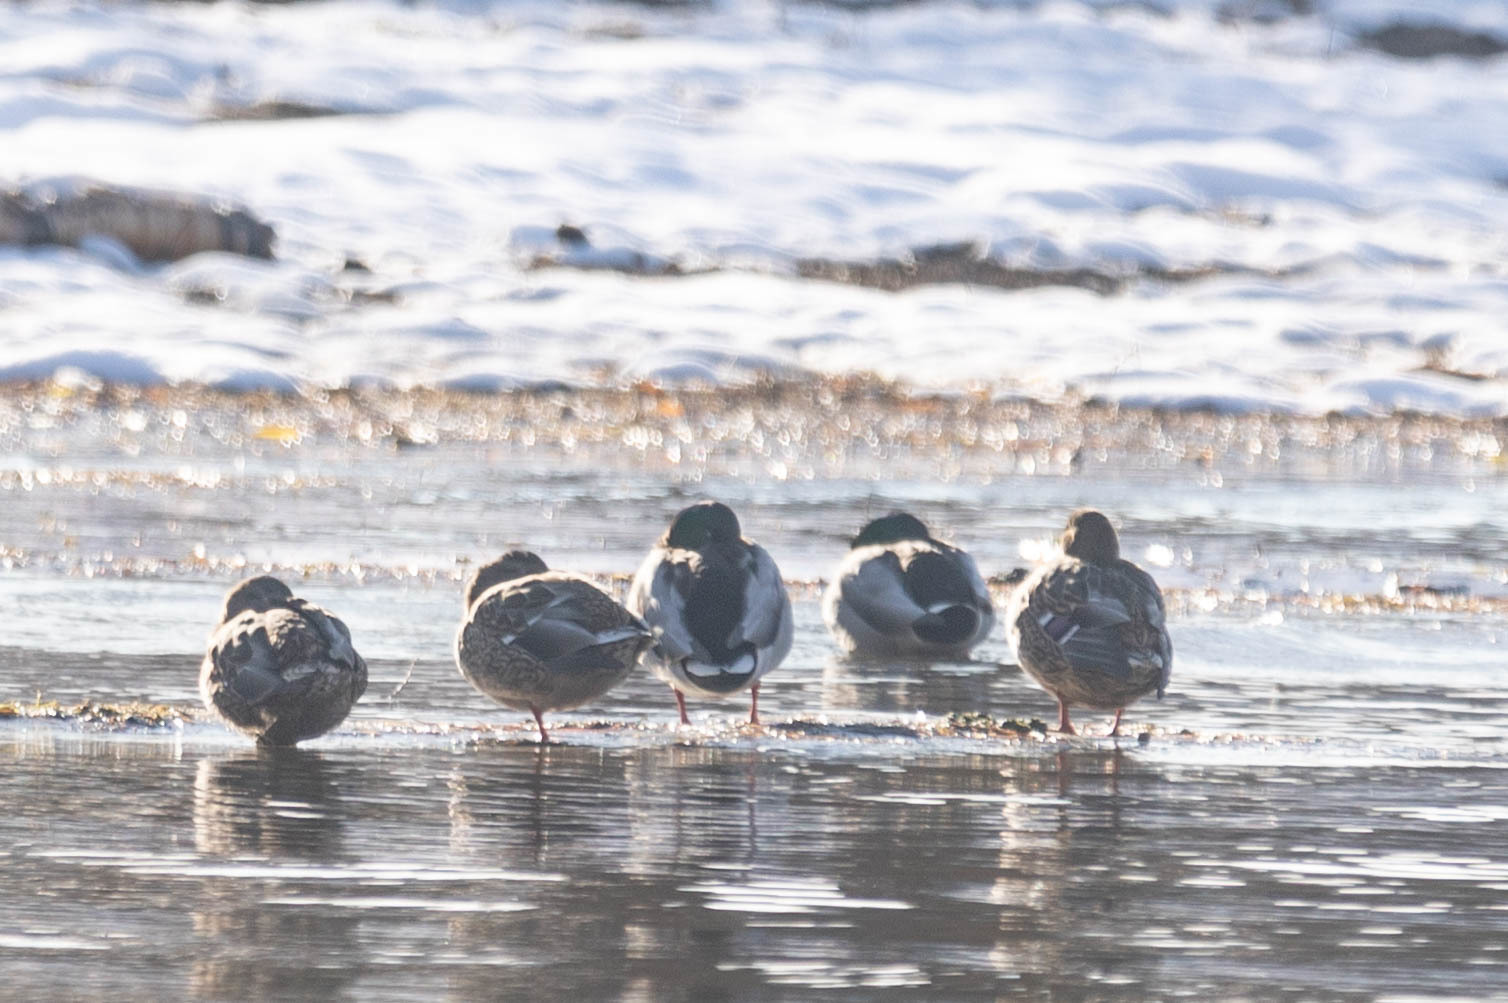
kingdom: Animalia
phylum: Chordata
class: Aves
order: Anseriformes
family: Anatidae
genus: Anas
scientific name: Anas platyrhynchos
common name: Mallard
